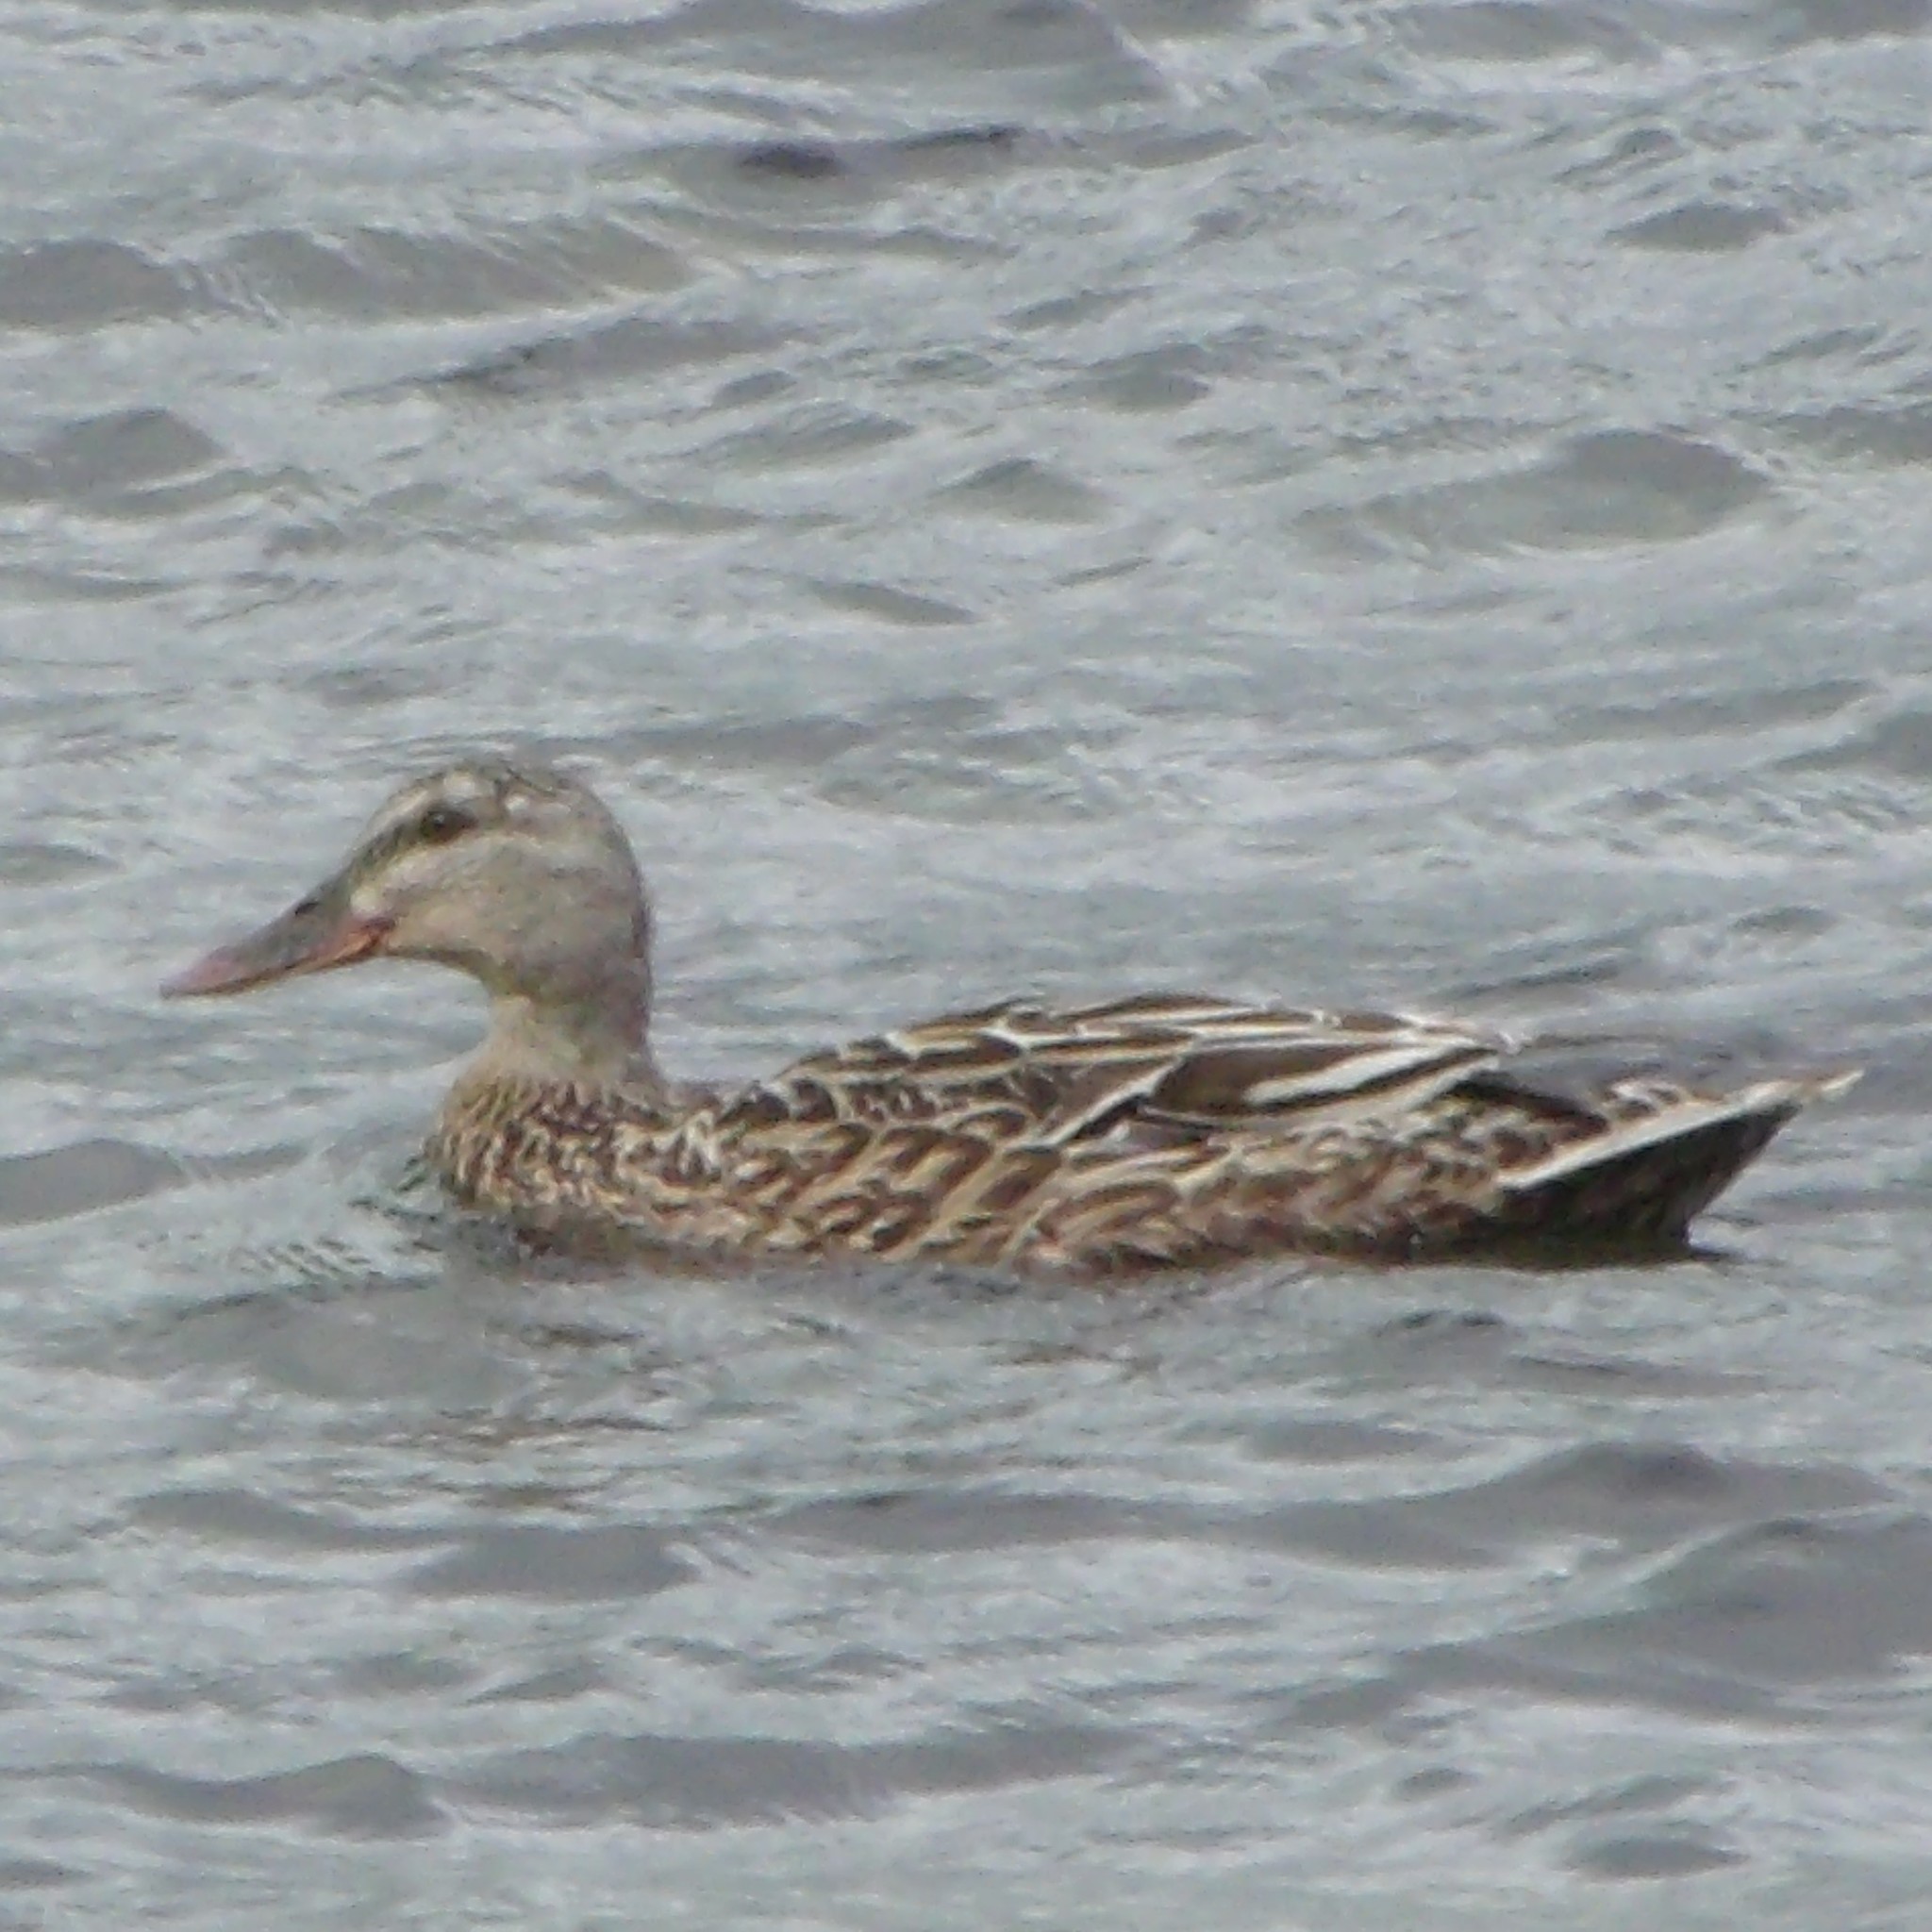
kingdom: Animalia
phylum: Chordata
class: Aves
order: Anseriformes
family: Anatidae
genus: Anas
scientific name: Anas platyrhynchos
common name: Mallard
